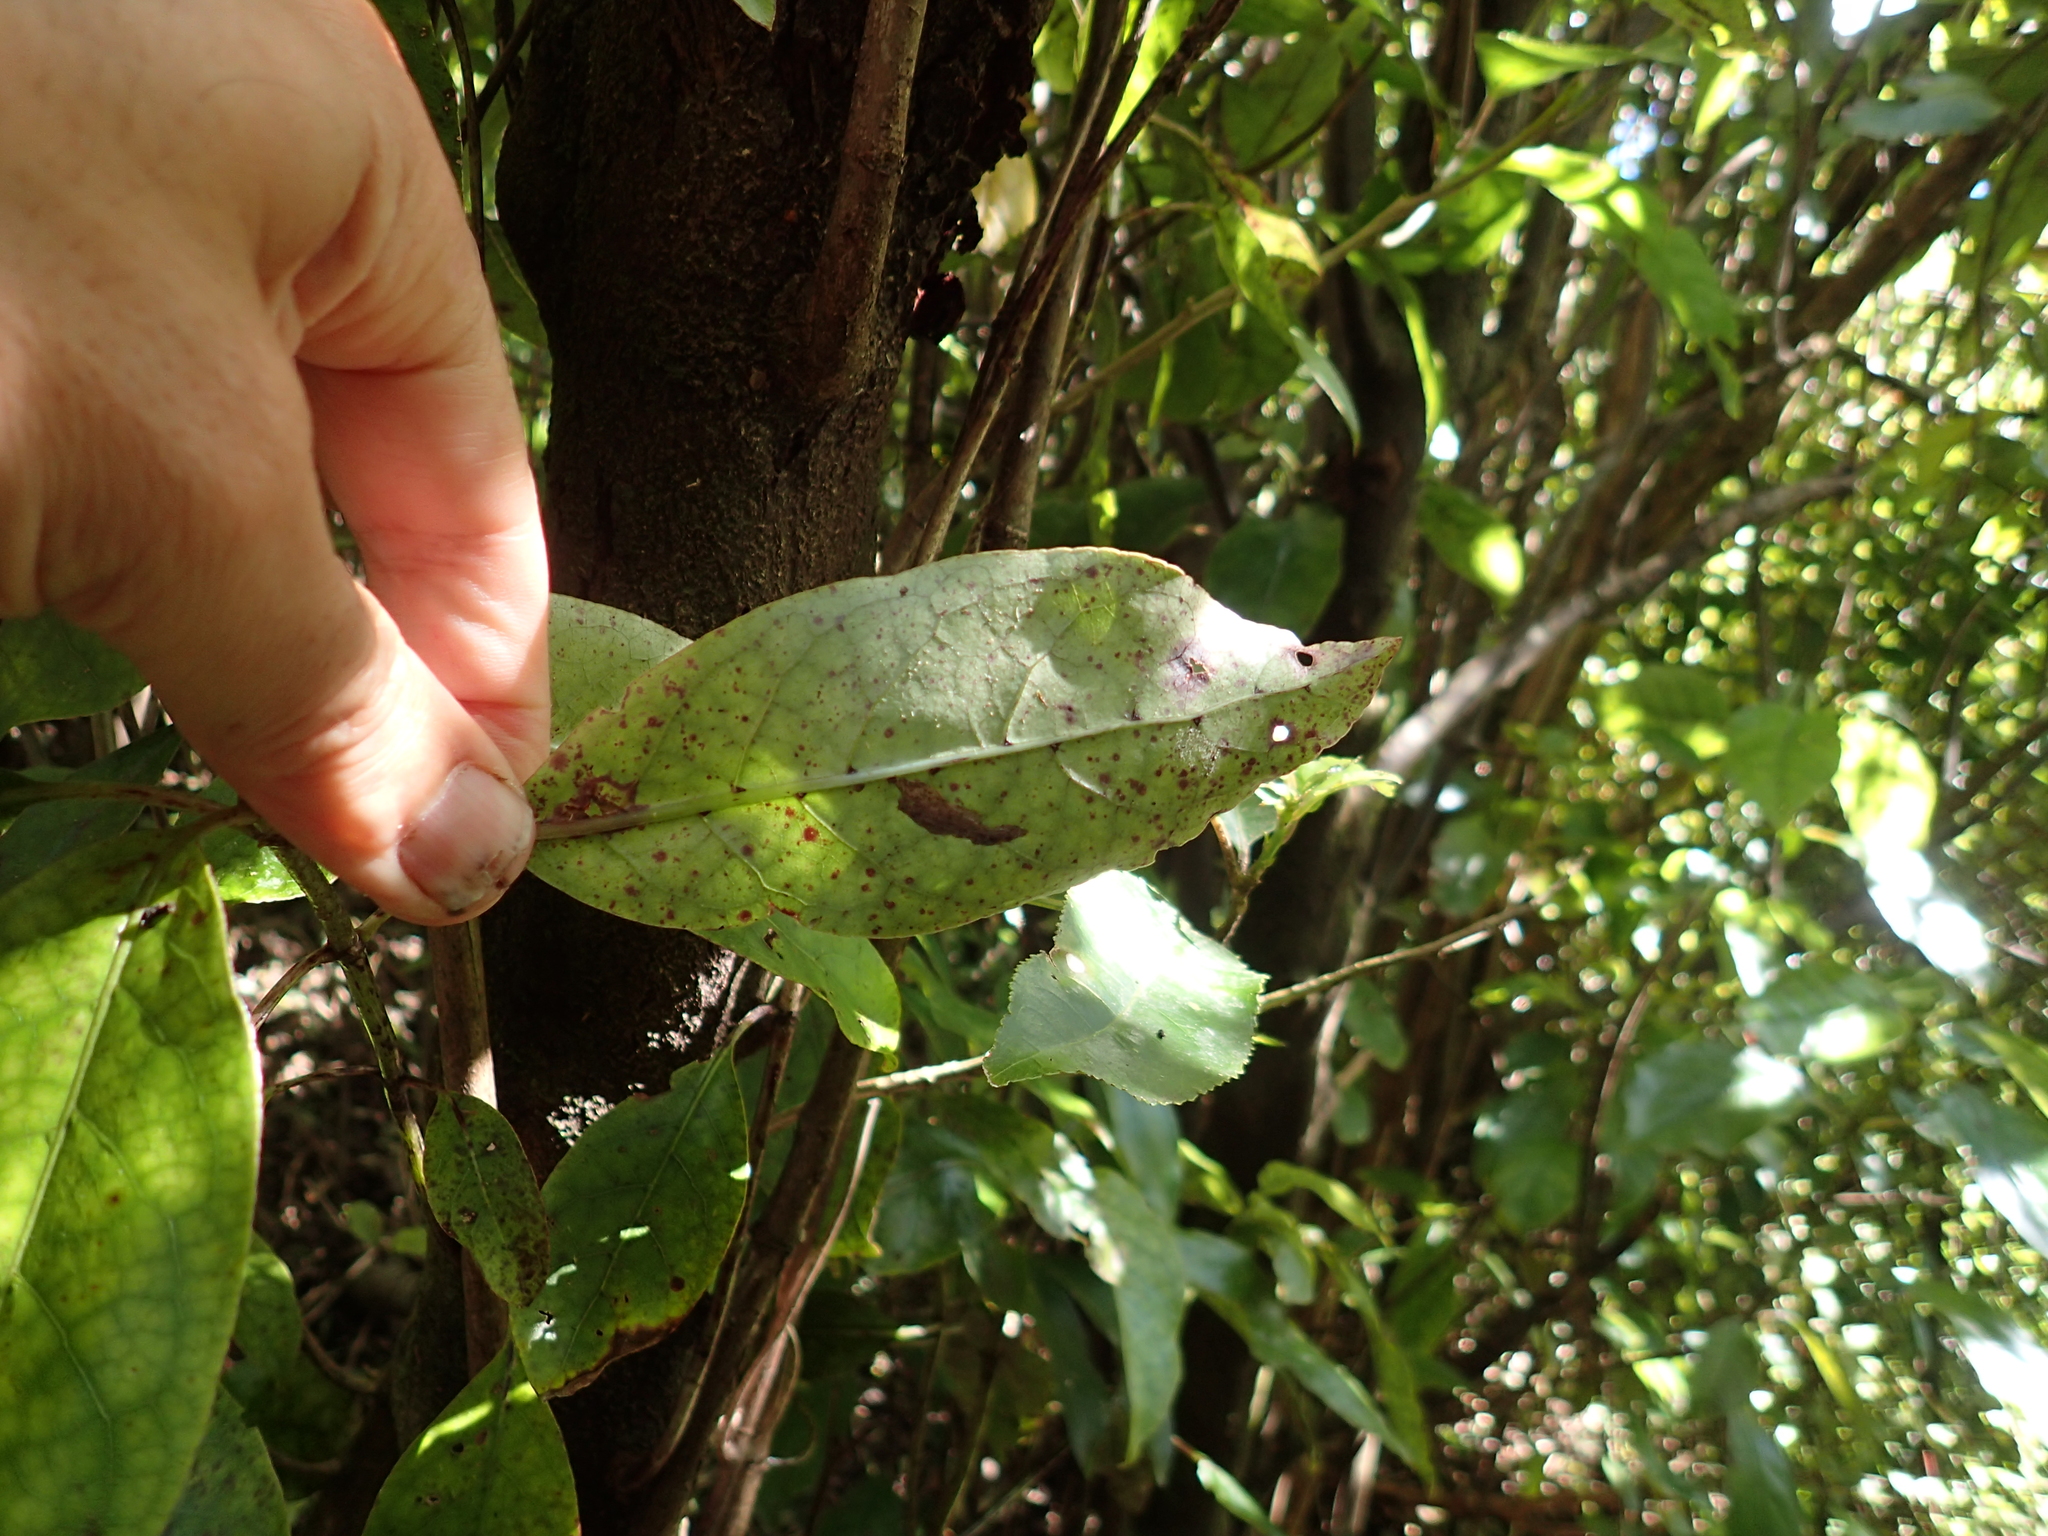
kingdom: Plantae
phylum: Tracheophyta
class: Magnoliopsida
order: Gentianales
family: Rubiaceae
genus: Coprosma
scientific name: Coprosma autumnalis
